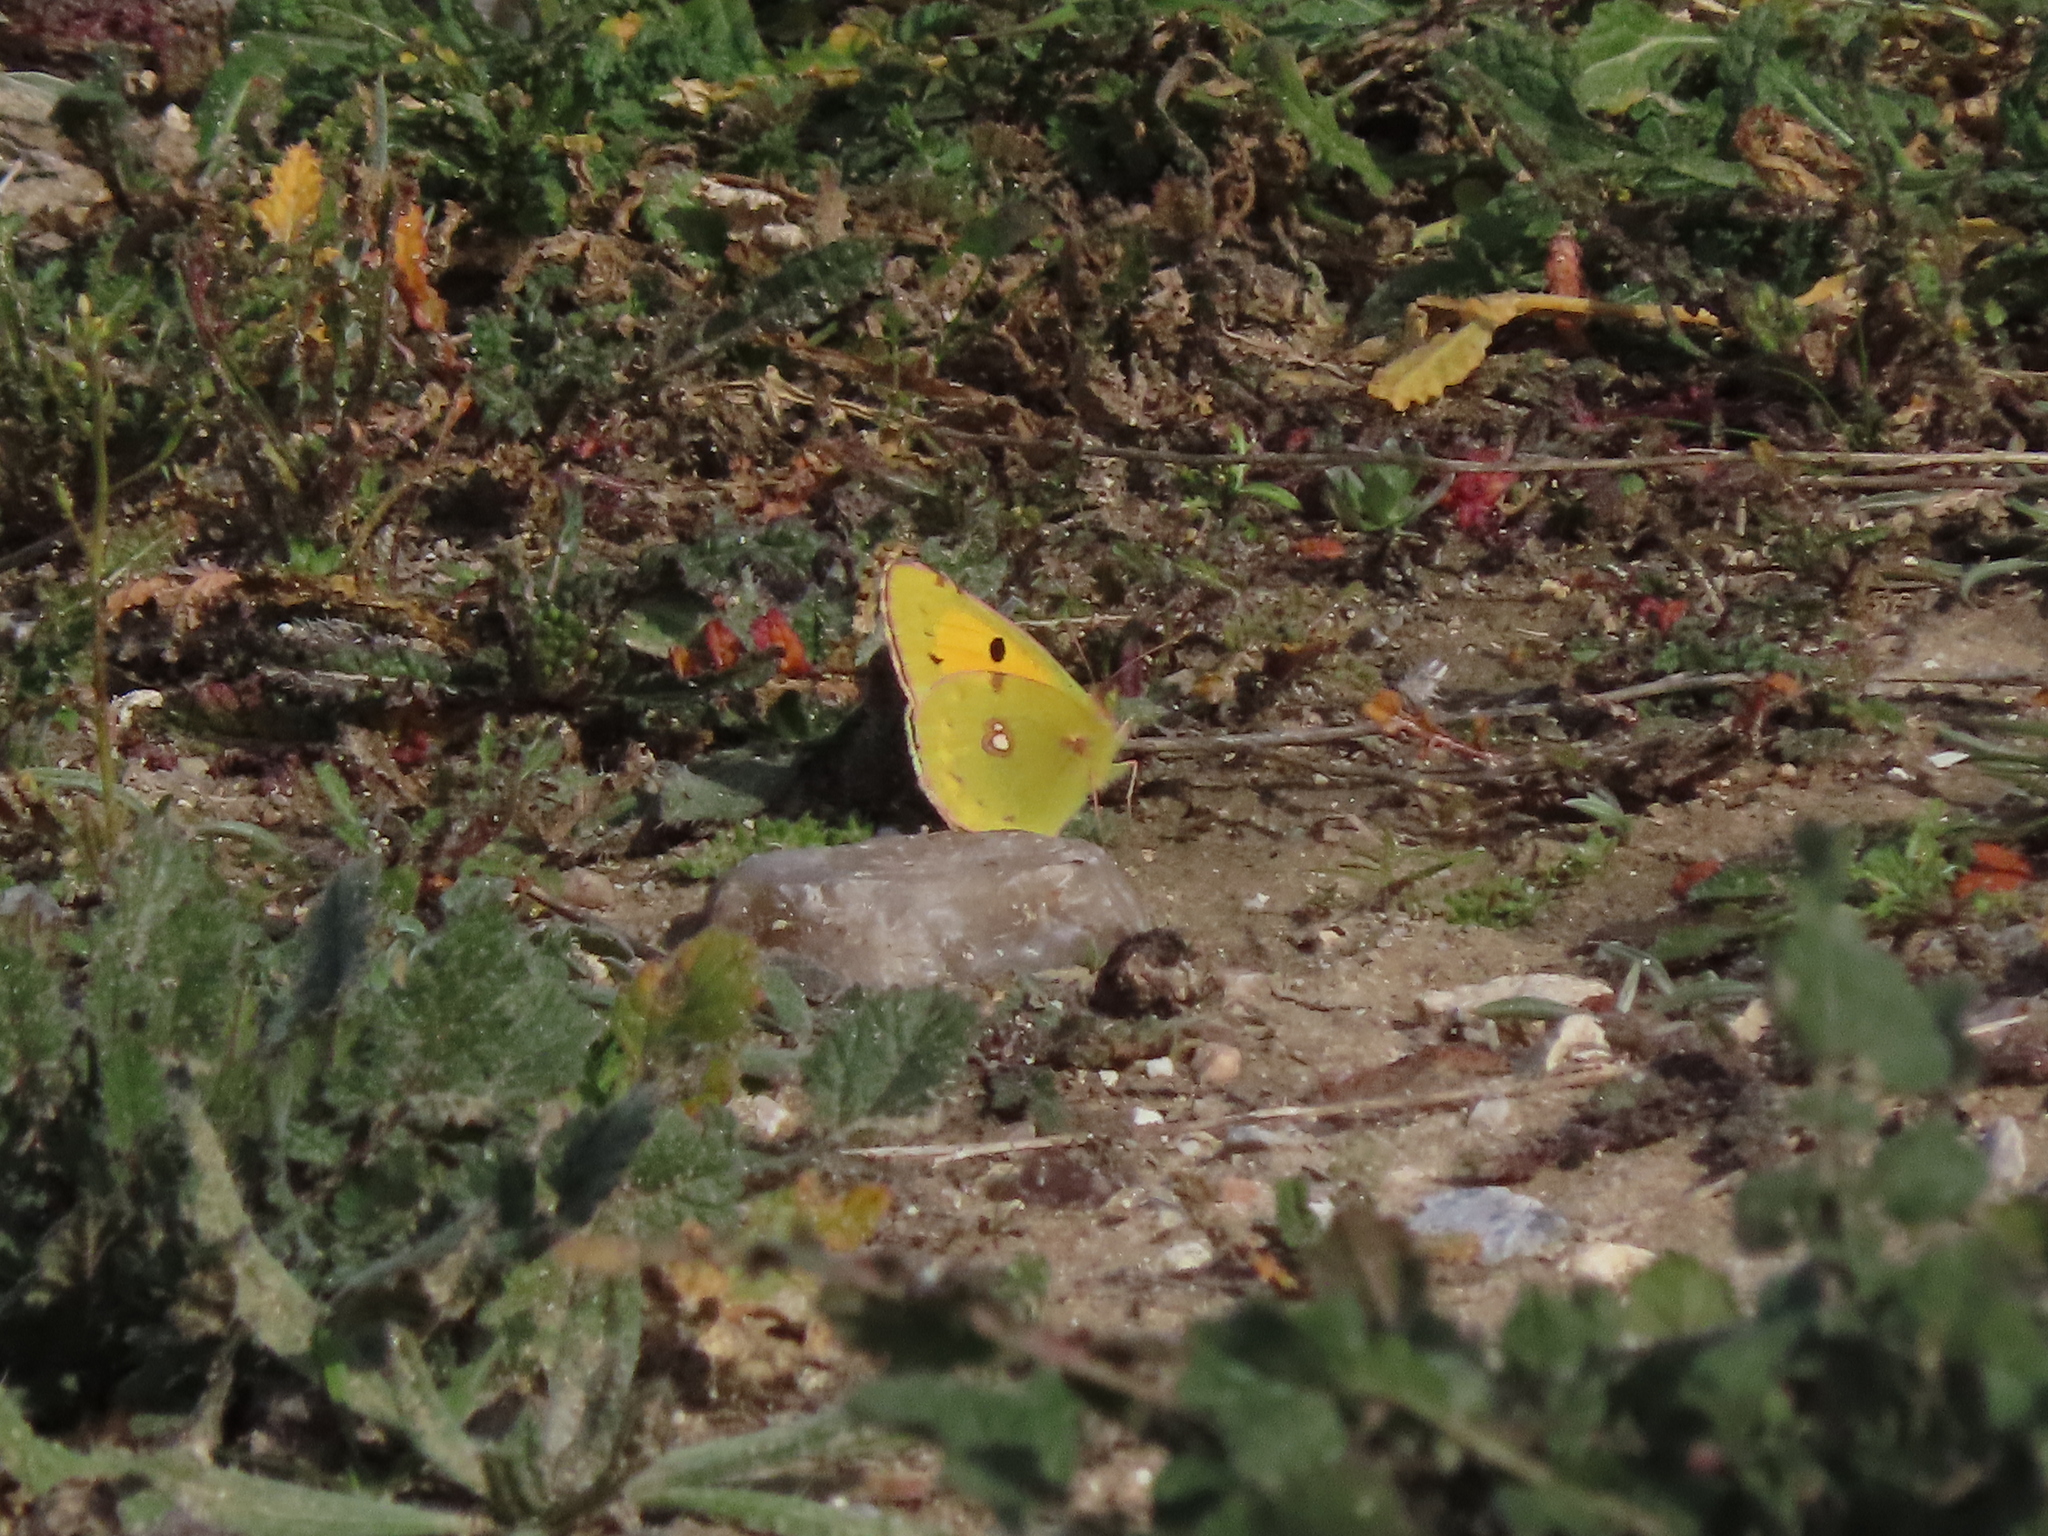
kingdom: Animalia
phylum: Arthropoda
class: Insecta
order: Lepidoptera
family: Pieridae
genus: Colias
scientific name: Colias croceus
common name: Clouded yellow
